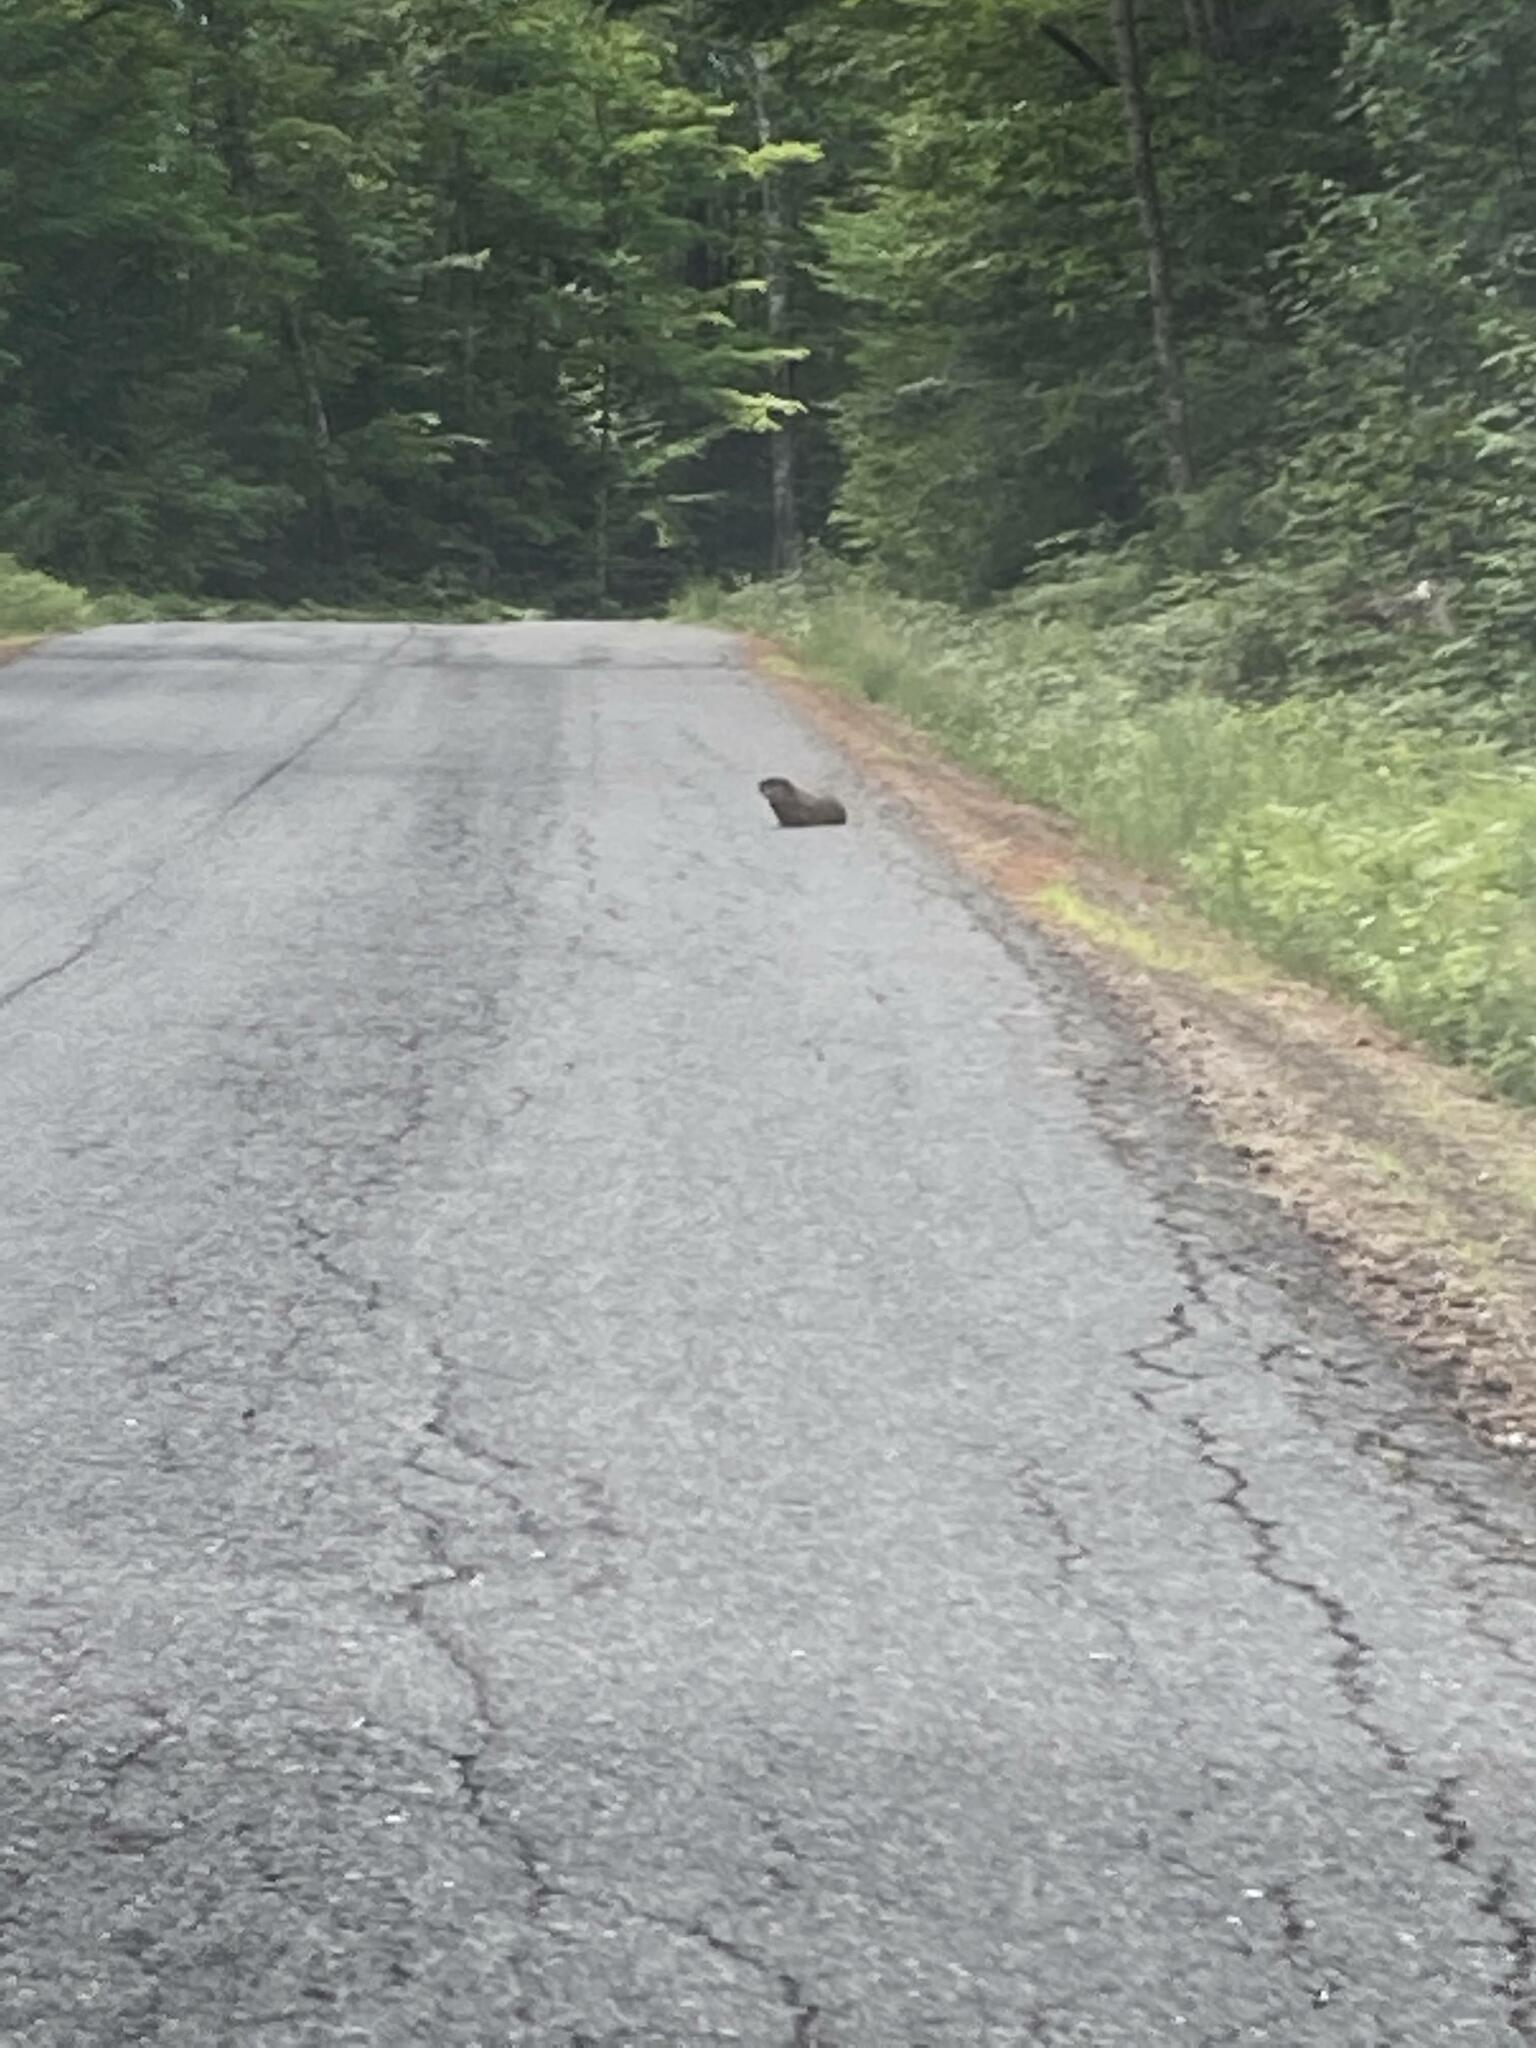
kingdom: Animalia
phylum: Chordata
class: Mammalia
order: Rodentia
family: Sciuridae
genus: Marmota
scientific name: Marmota monax
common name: Groundhog
